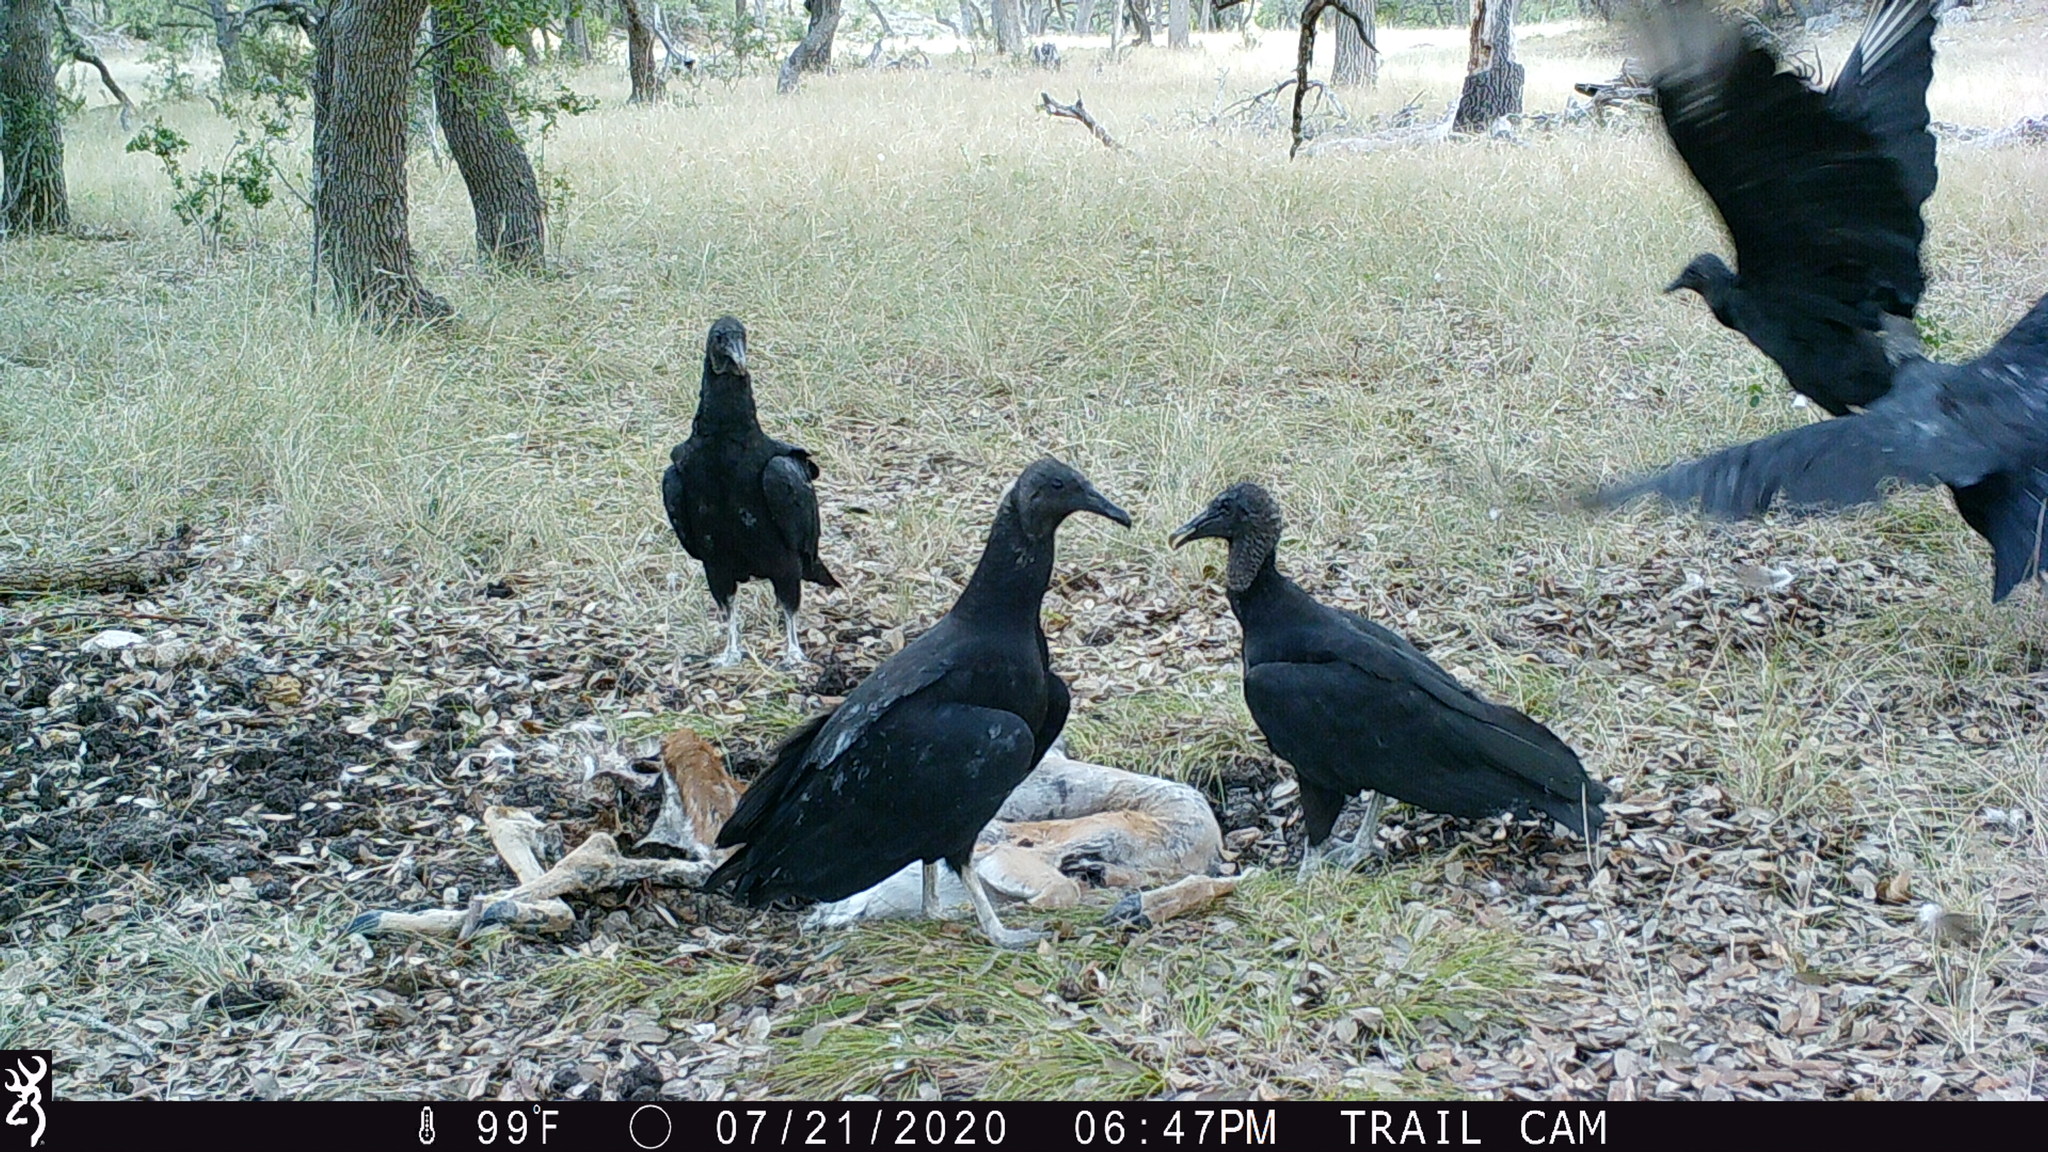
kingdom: Animalia
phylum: Chordata
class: Aves
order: Accipitriformes
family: Cathartidae
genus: Coragyps
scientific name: Coragyps atratus
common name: Black vulture
